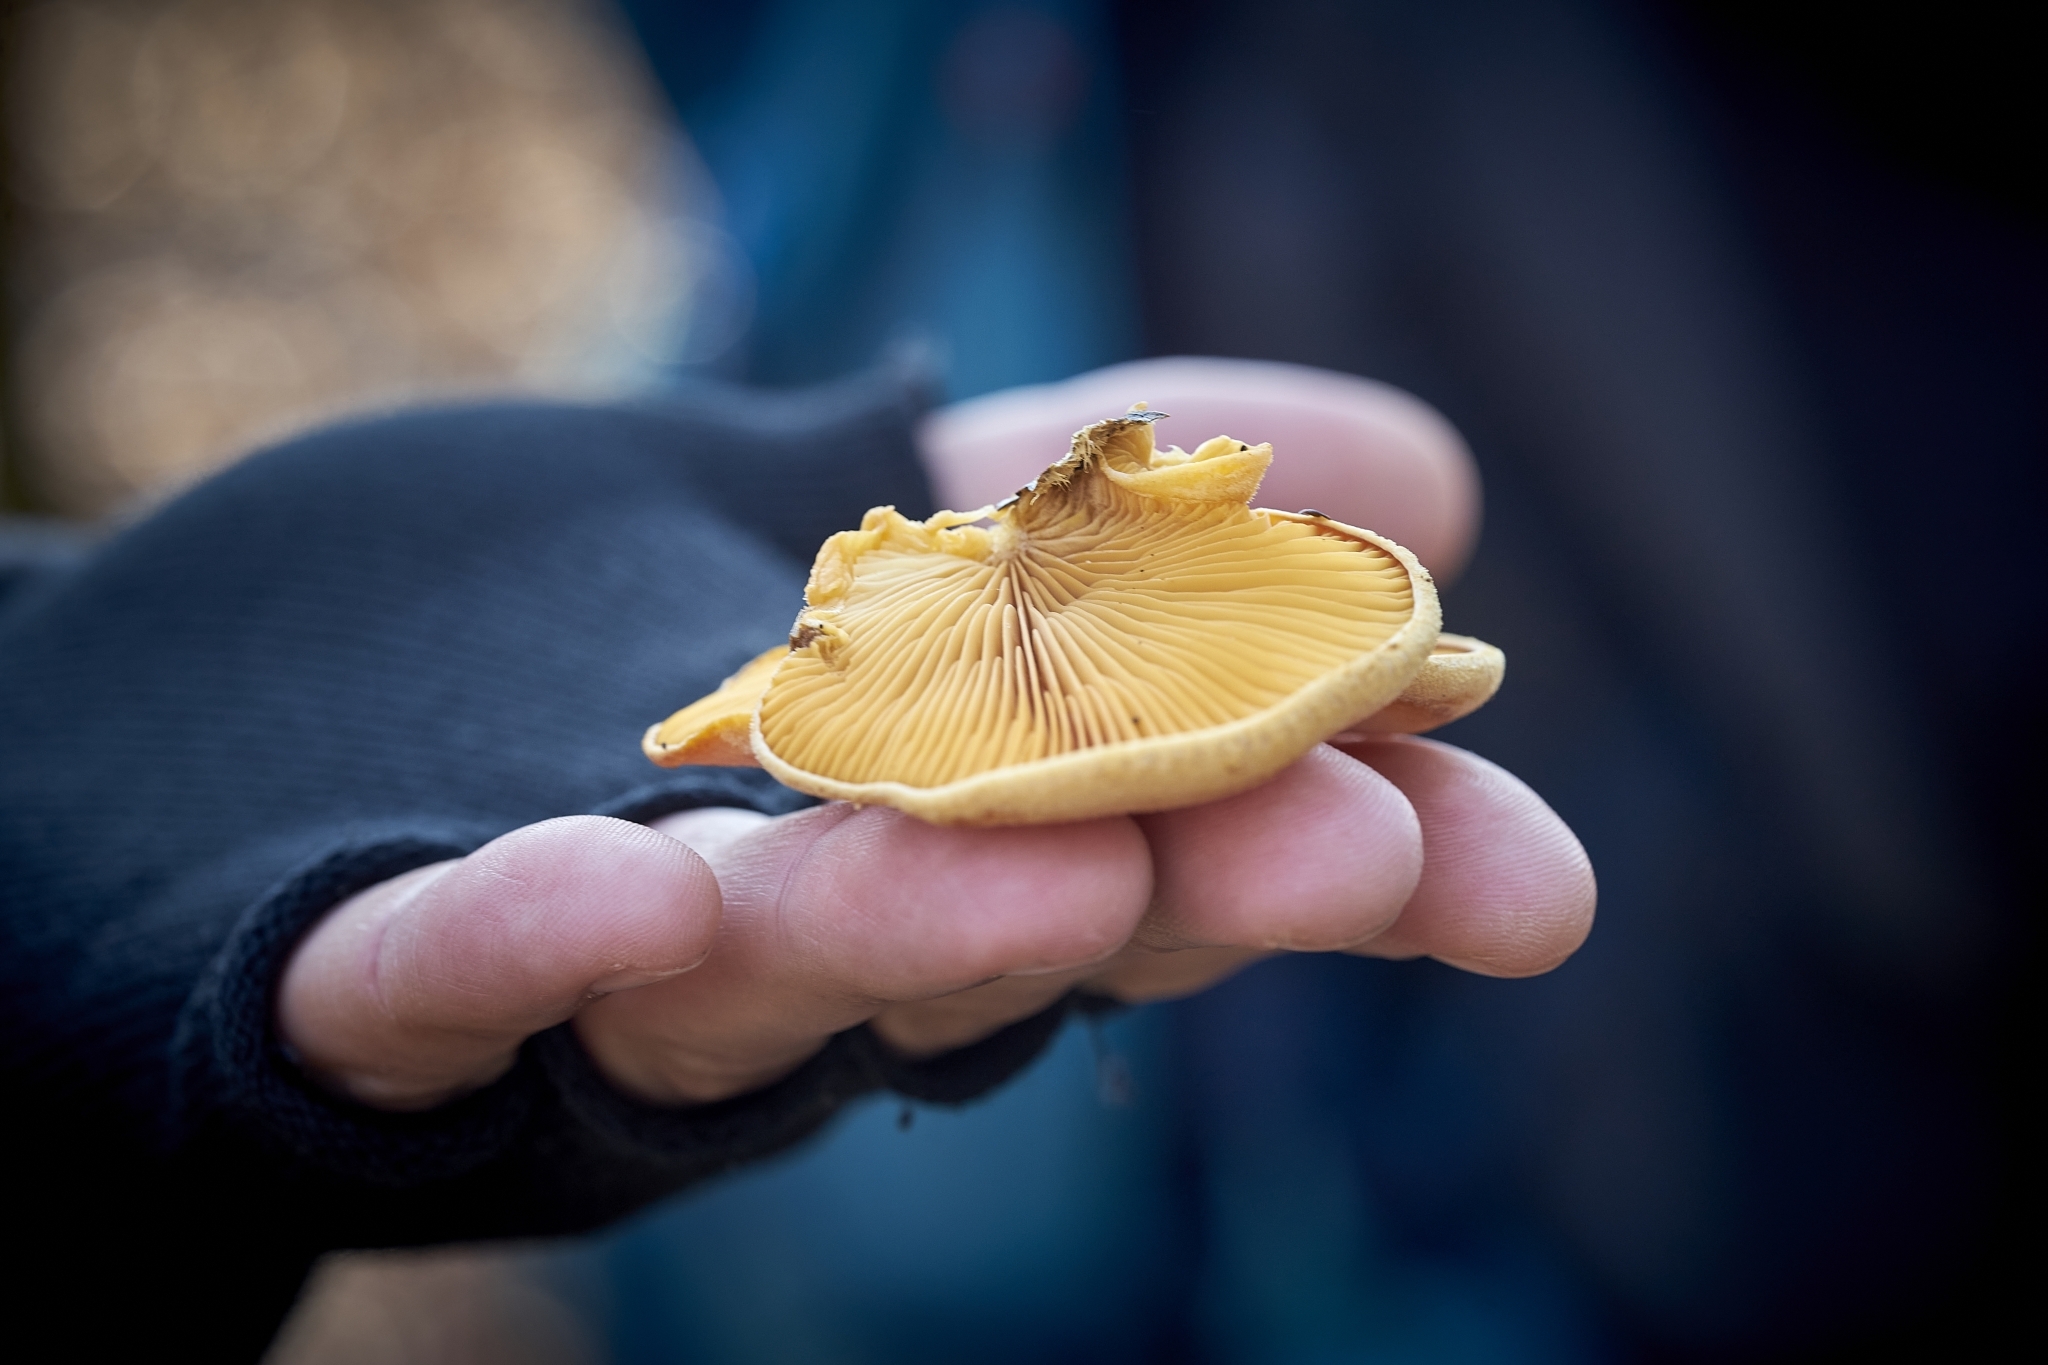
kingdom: Fungi
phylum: Basidiomycota
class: Agaricomycetes
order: Agaricales
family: Phyllotopsidaceae
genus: Phyllotopsis
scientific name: Phyllotopsis nidulans
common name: Orange mock oyster
